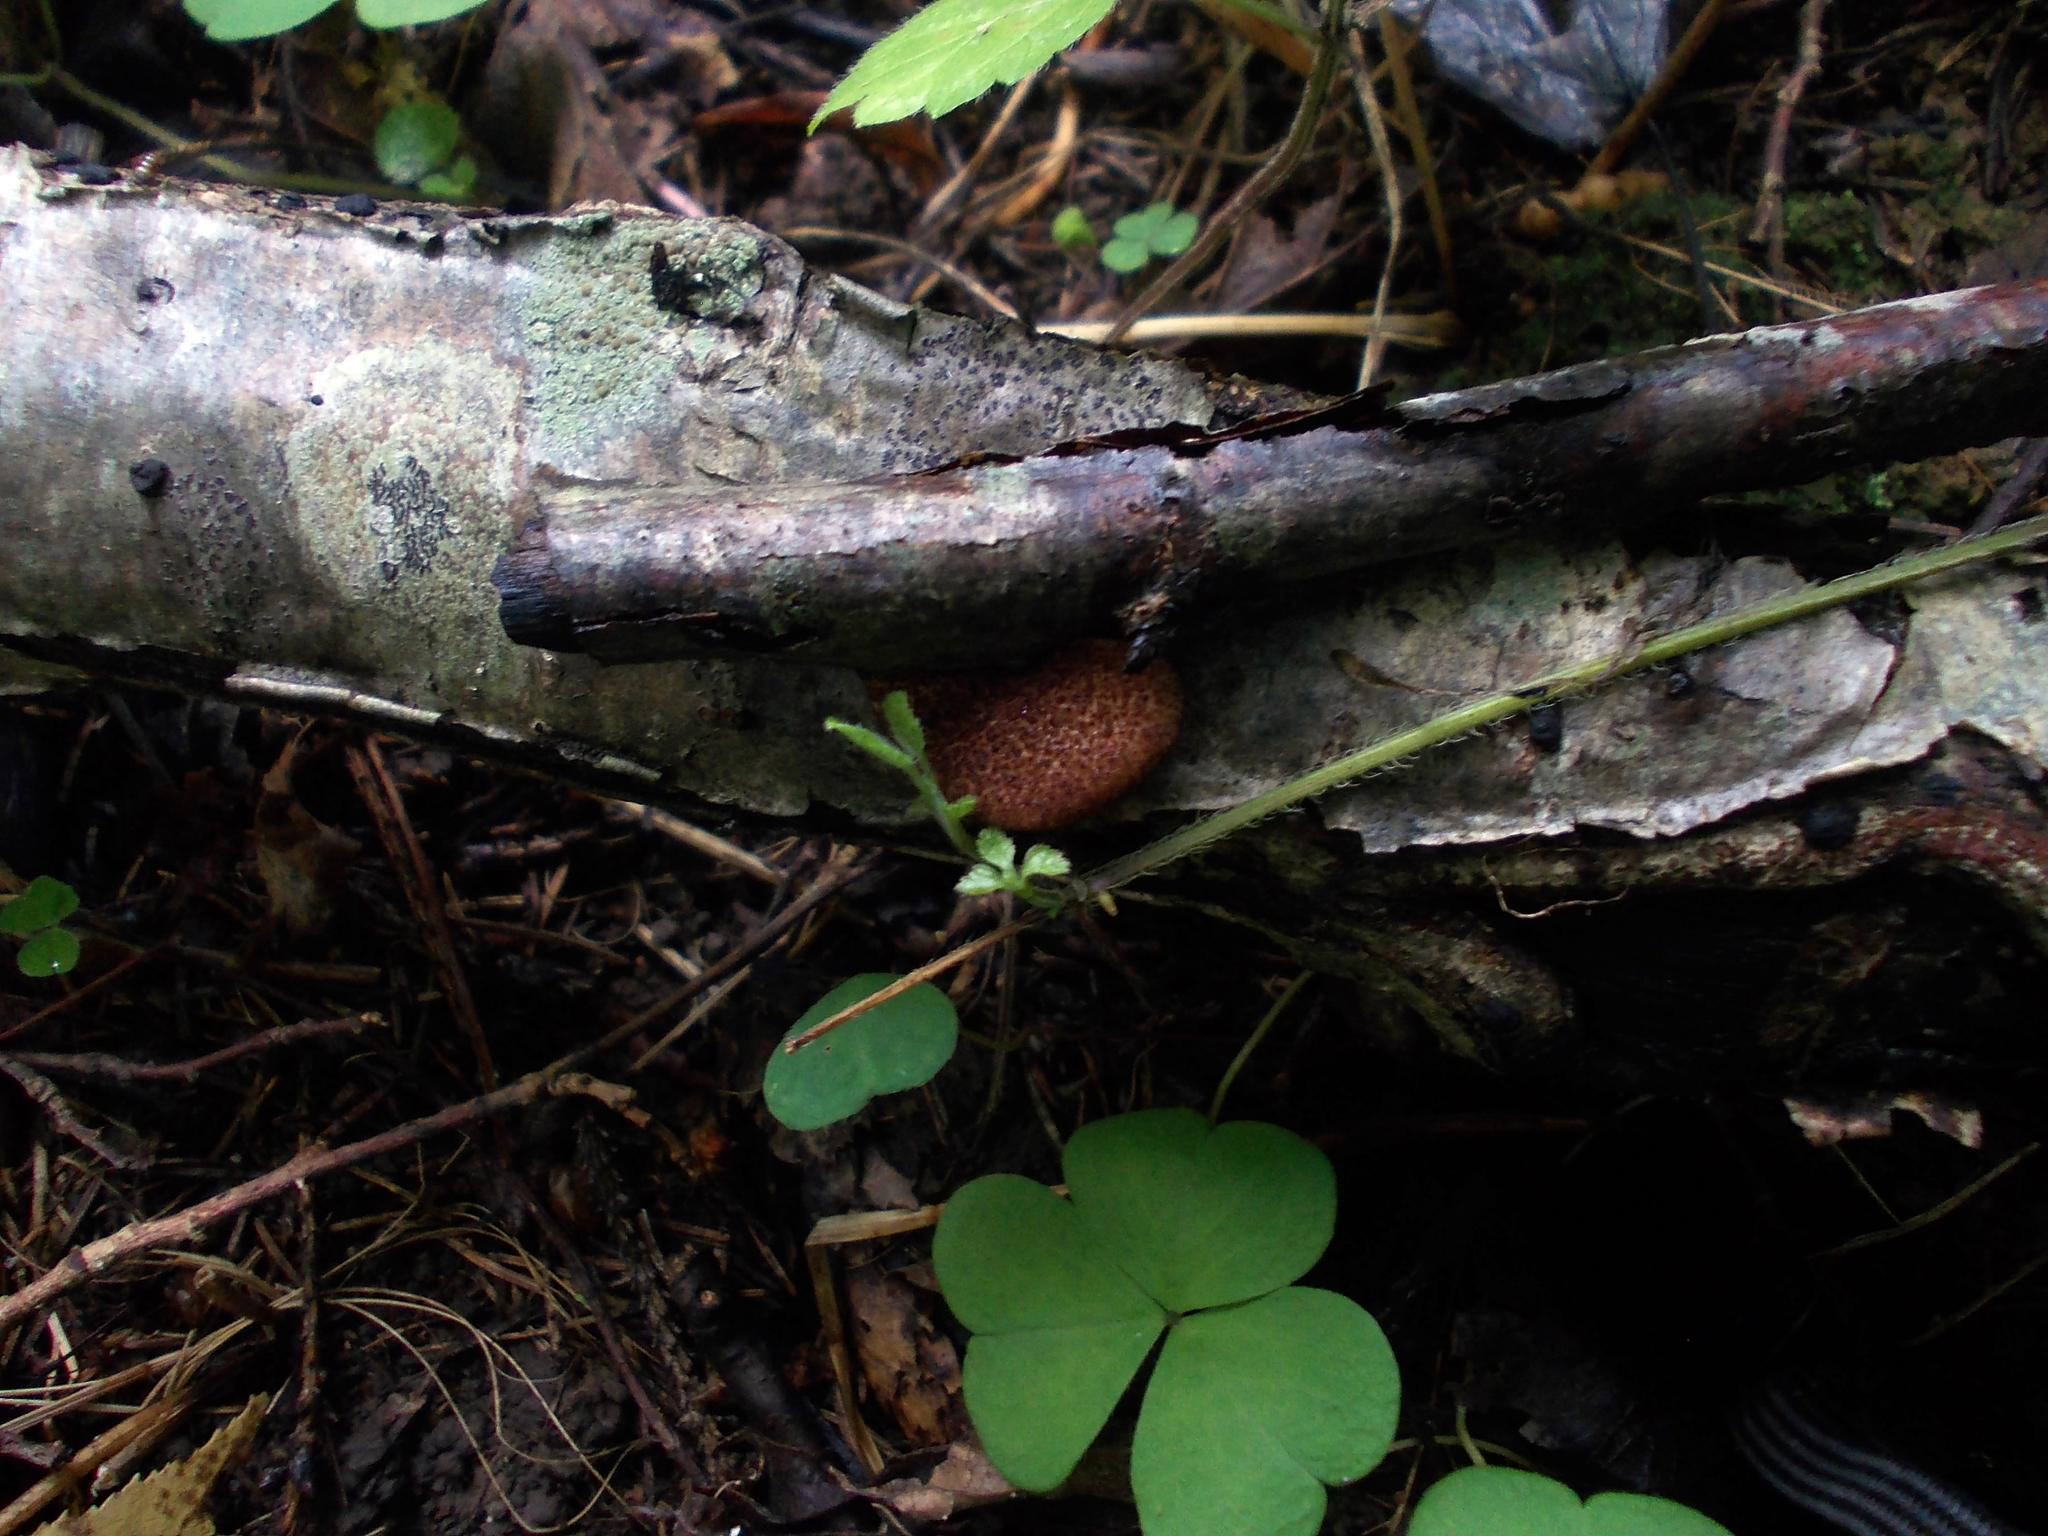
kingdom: Fungi
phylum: Basidiomycota
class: Agaricomycetes
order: Agaricales
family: Crepidotaceae
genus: Crepidotus
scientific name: Crepidotus crocophyllus
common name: Saffron oysterling
